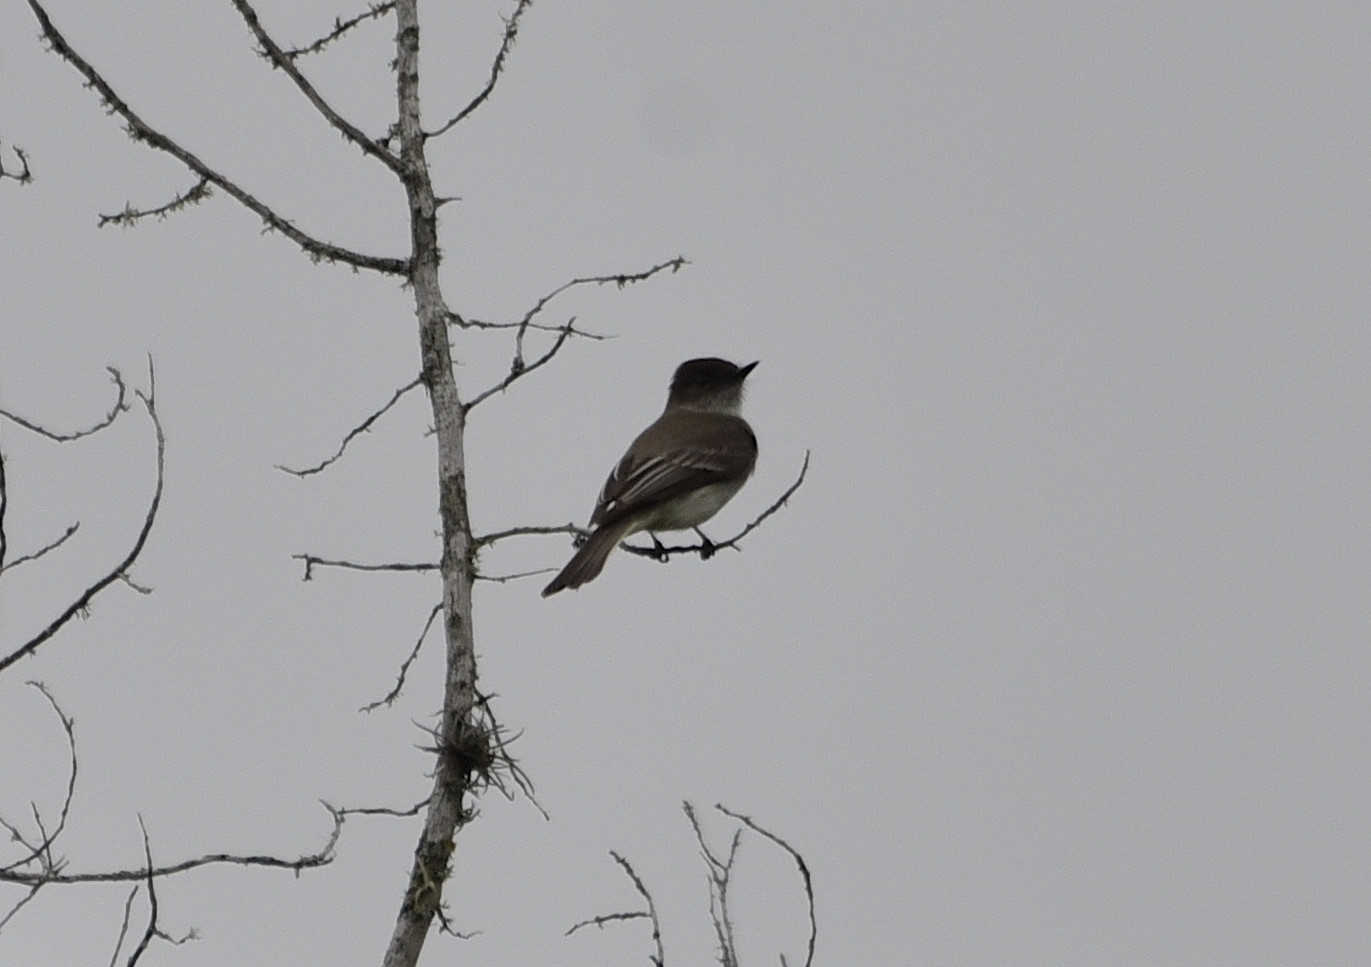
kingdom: Animalia
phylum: Chordata
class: Aves
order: Passeriformes
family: Tyrannidae
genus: Sayornis
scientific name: Sayornis phoebe
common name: Eastern phoebe
